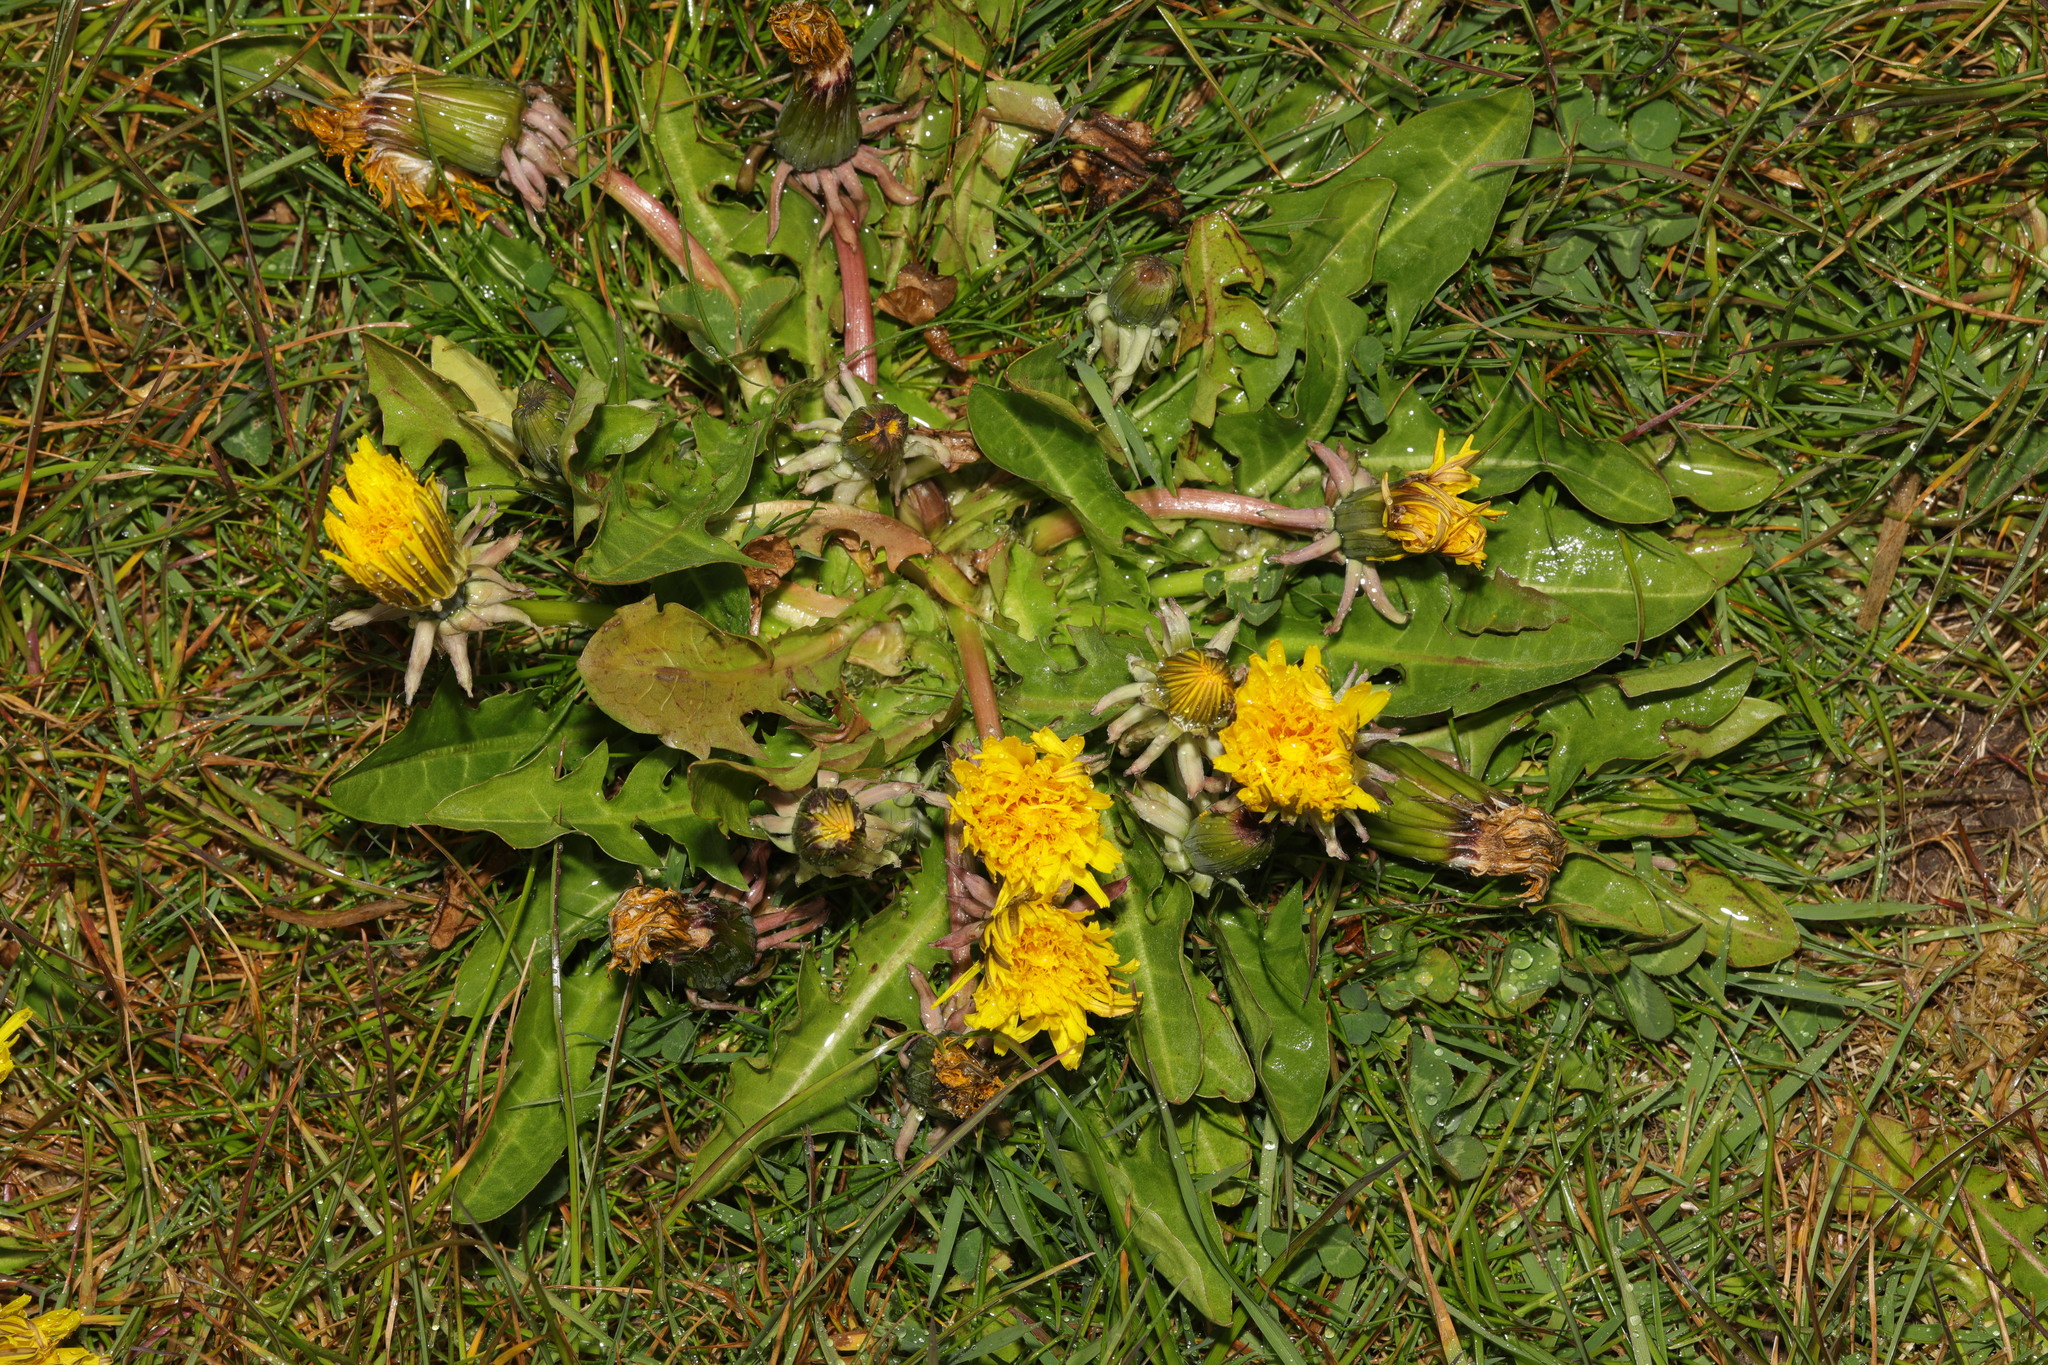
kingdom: Plantae
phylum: Tracheophyta
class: Magnoliopsida
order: Asterales
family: Asteraceae
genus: Taraxacum
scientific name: Taraxacum officinale
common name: Common dandelion
